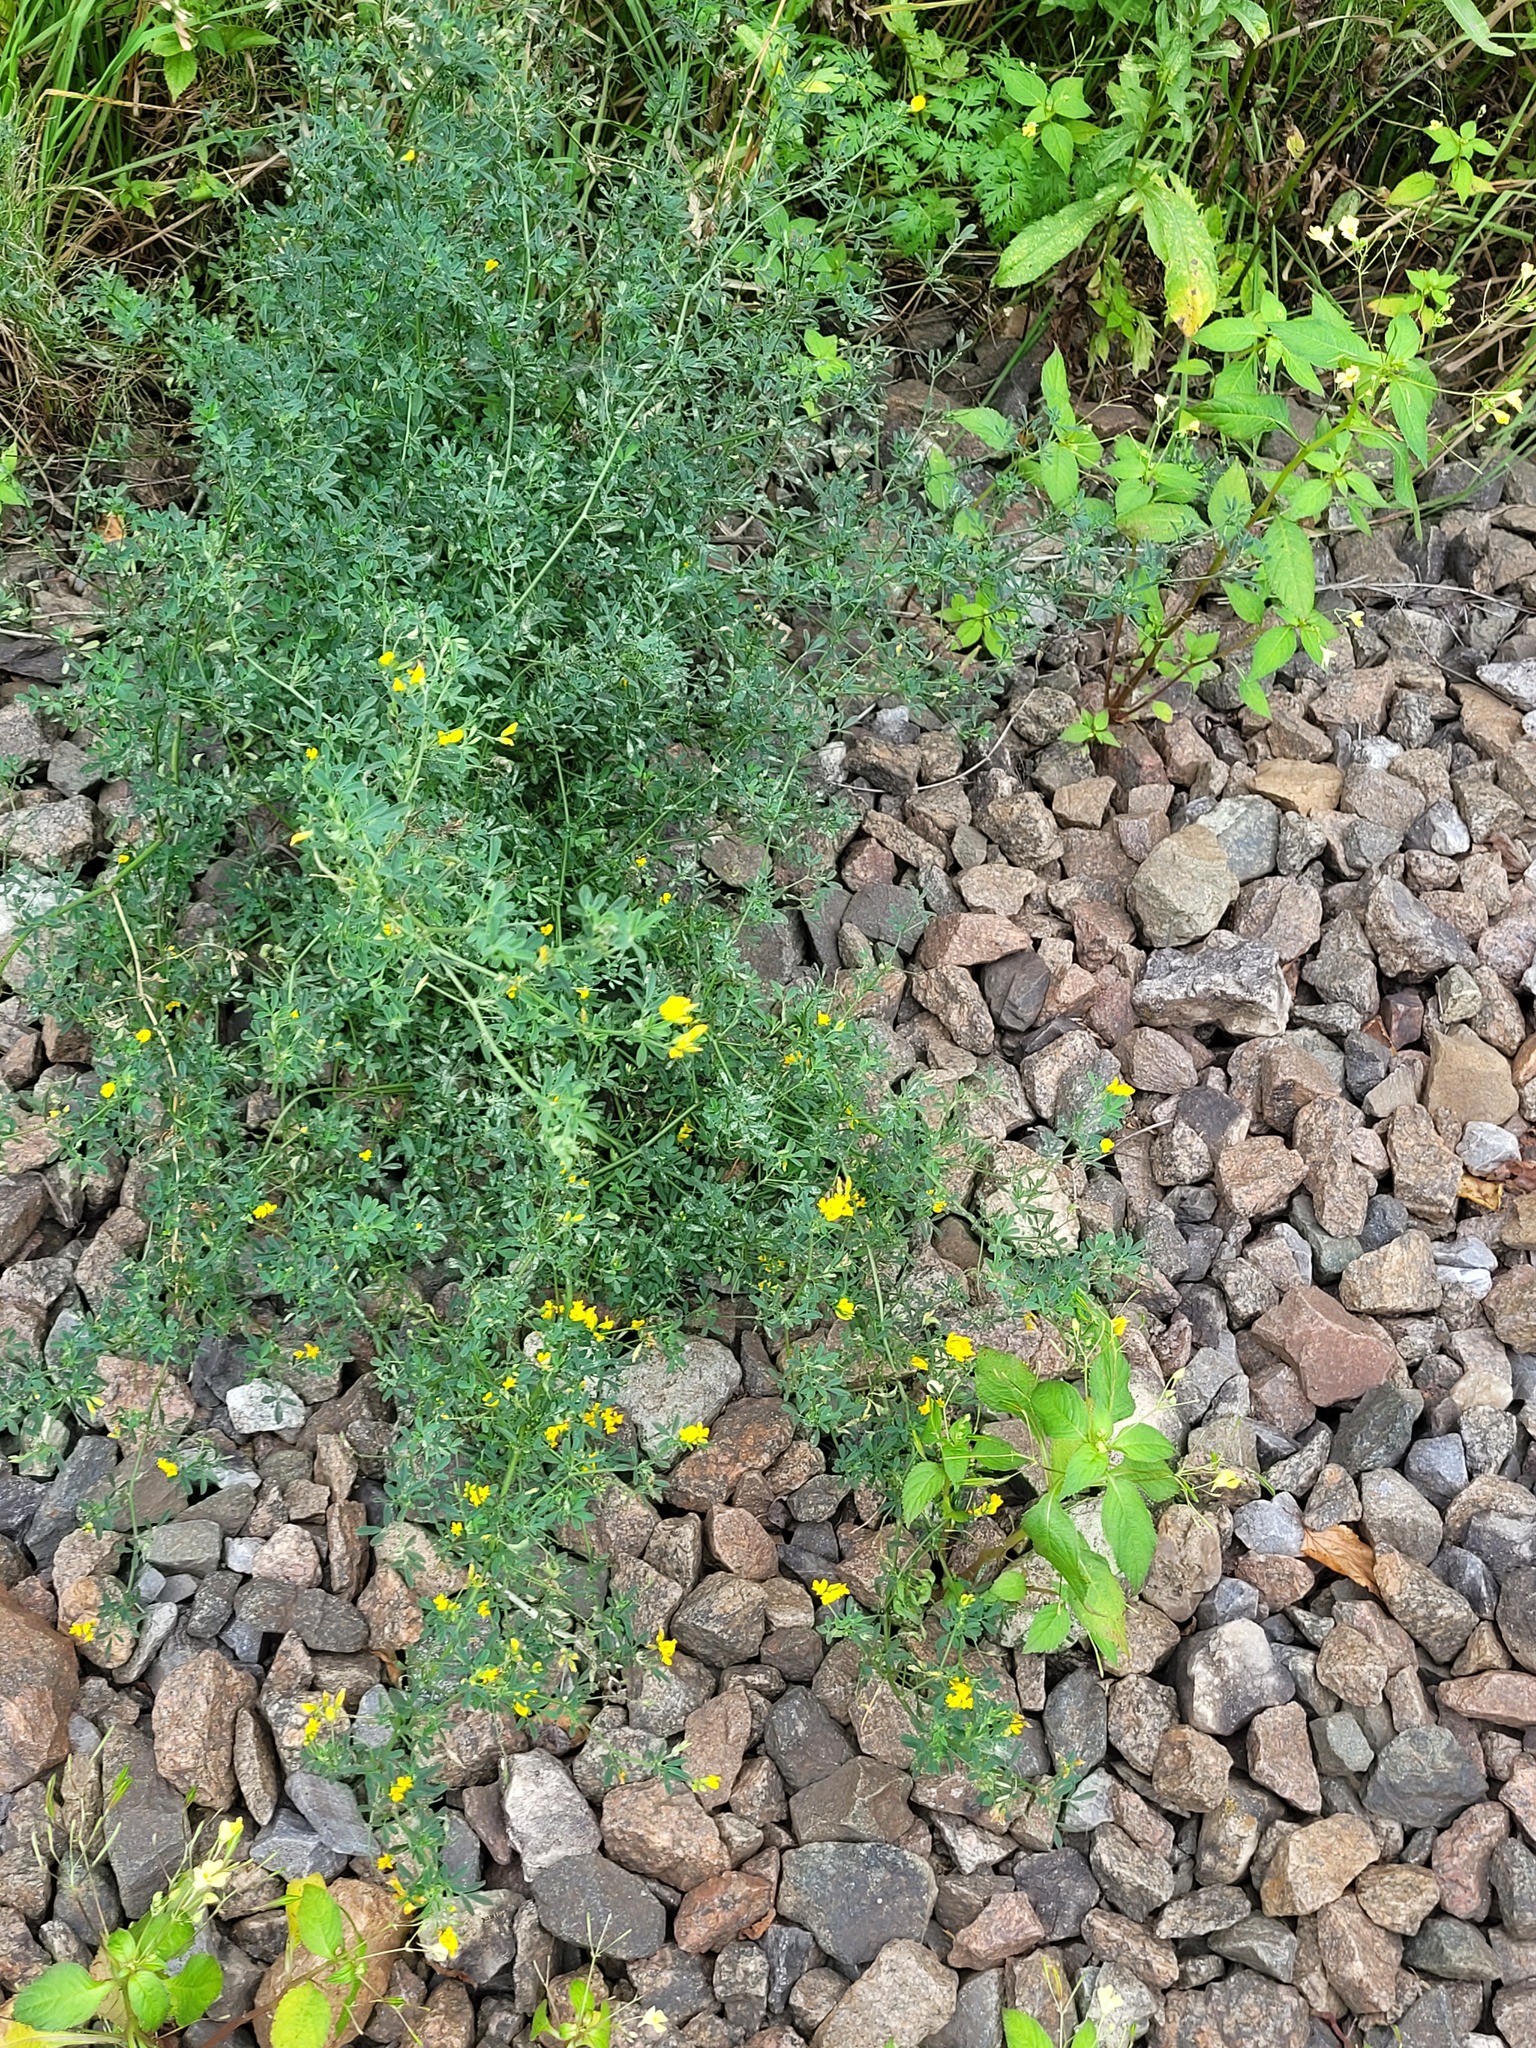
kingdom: Plantae
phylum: Tracheophyta
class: Magnoliopsida
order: Fabales
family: Fabaceae
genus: Medicago
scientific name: Medicago falcata
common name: Sickle medick
